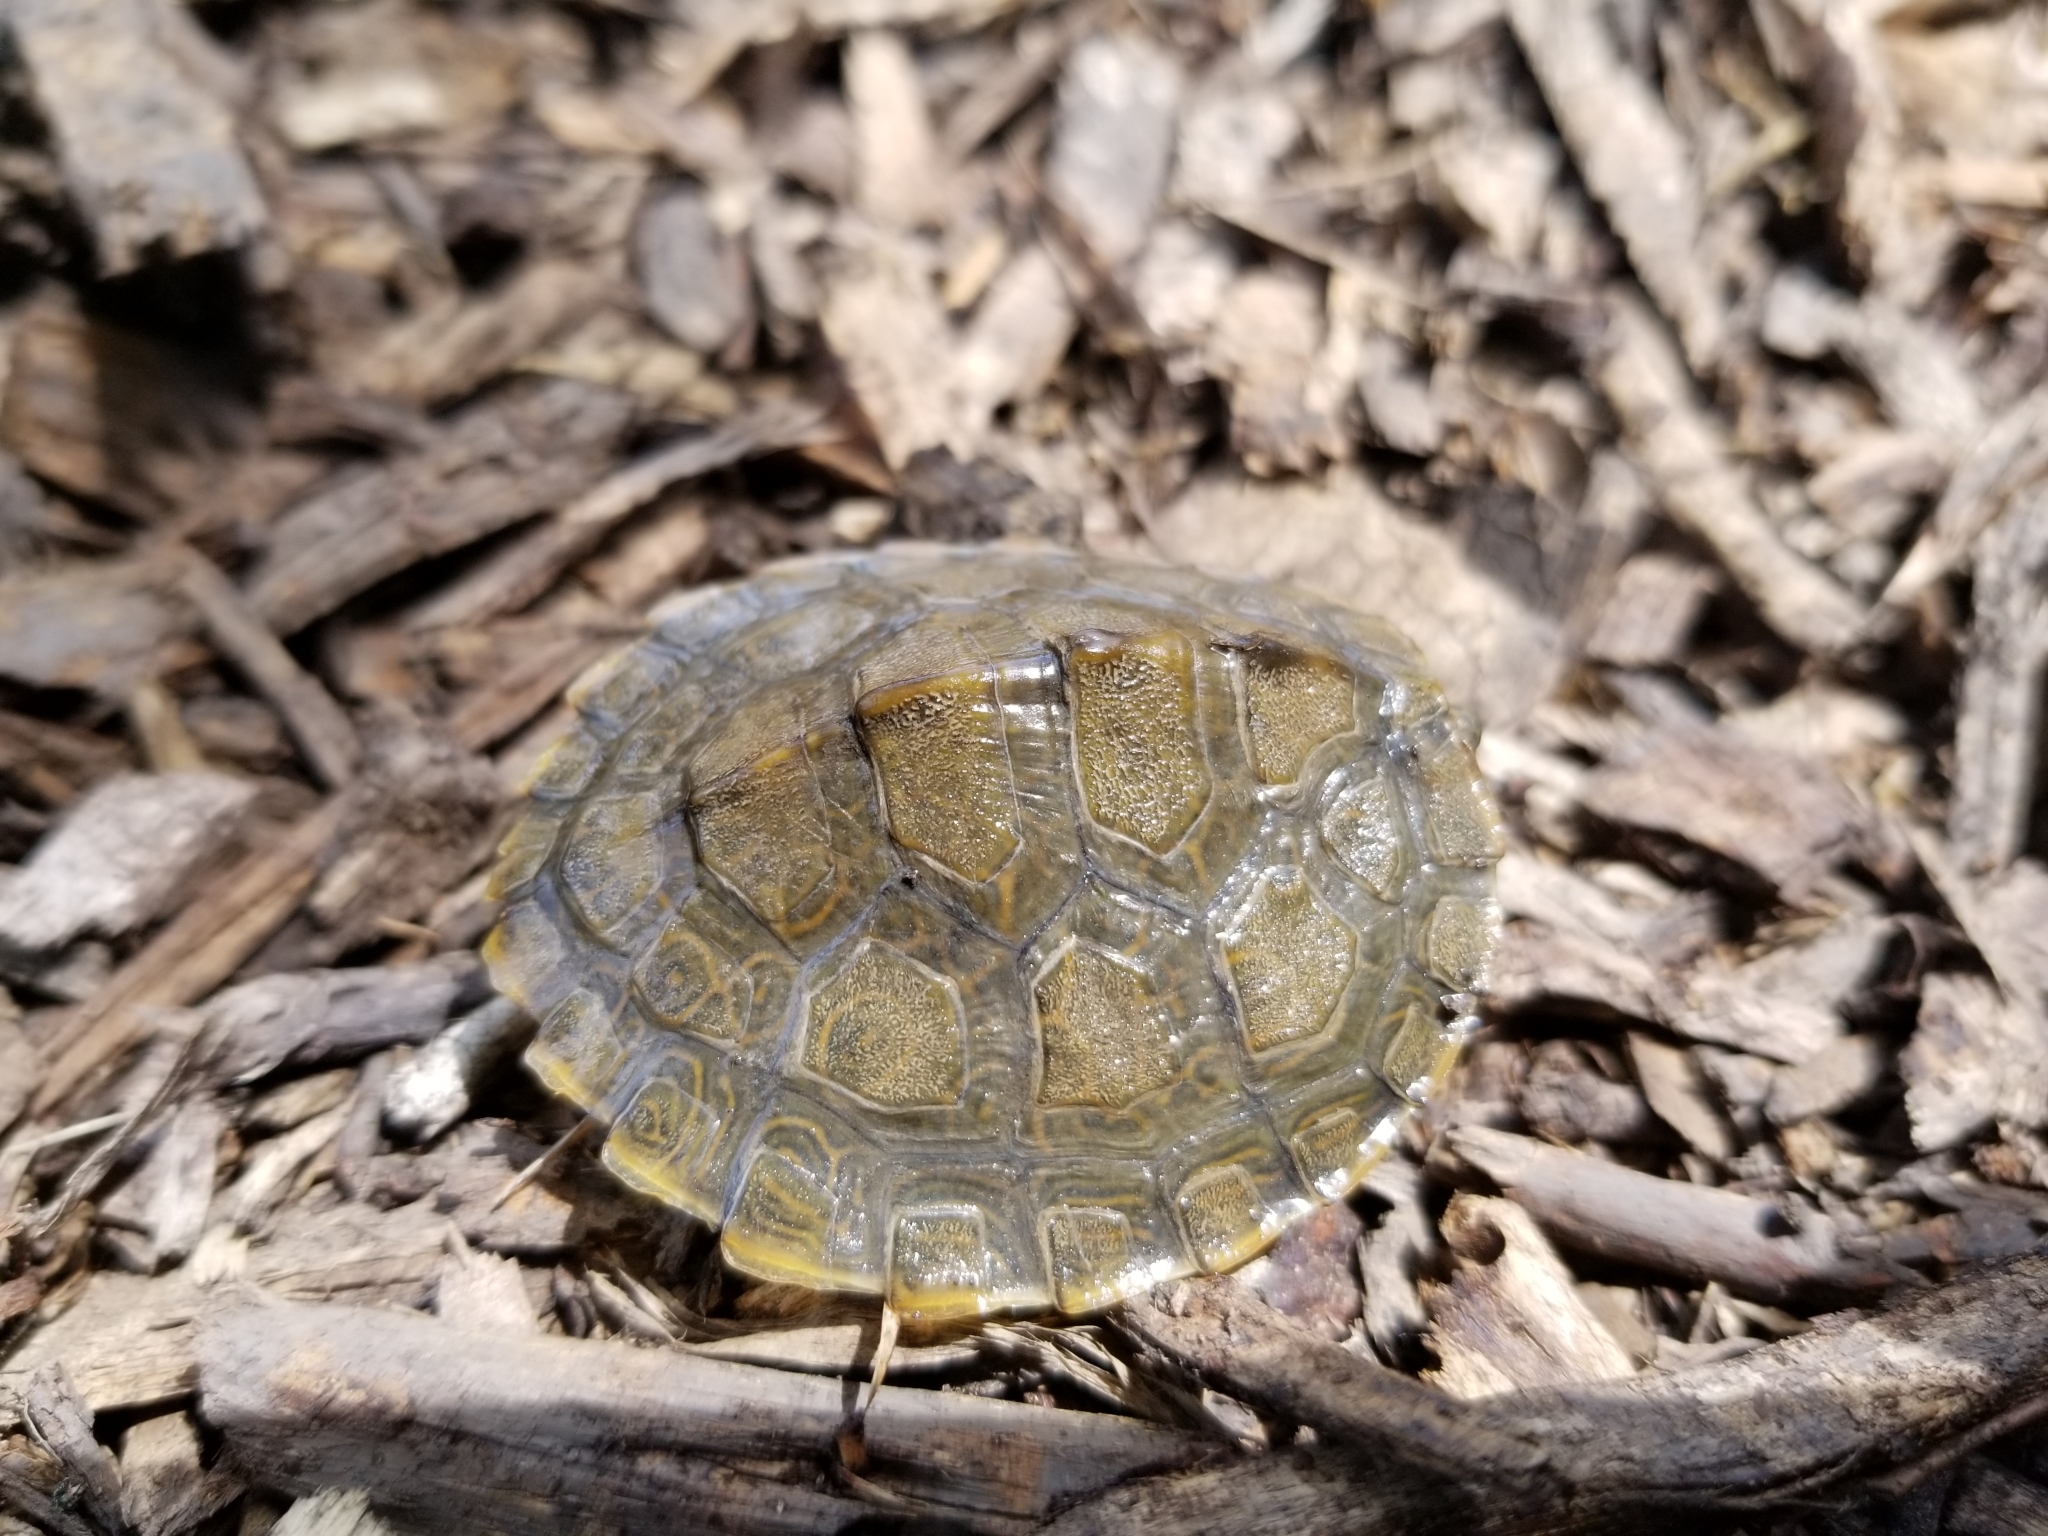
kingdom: Animalia
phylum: Chordata
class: Testudines
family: Emydidae
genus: Graptemys
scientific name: Graptemys geographica
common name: Common map turtle
